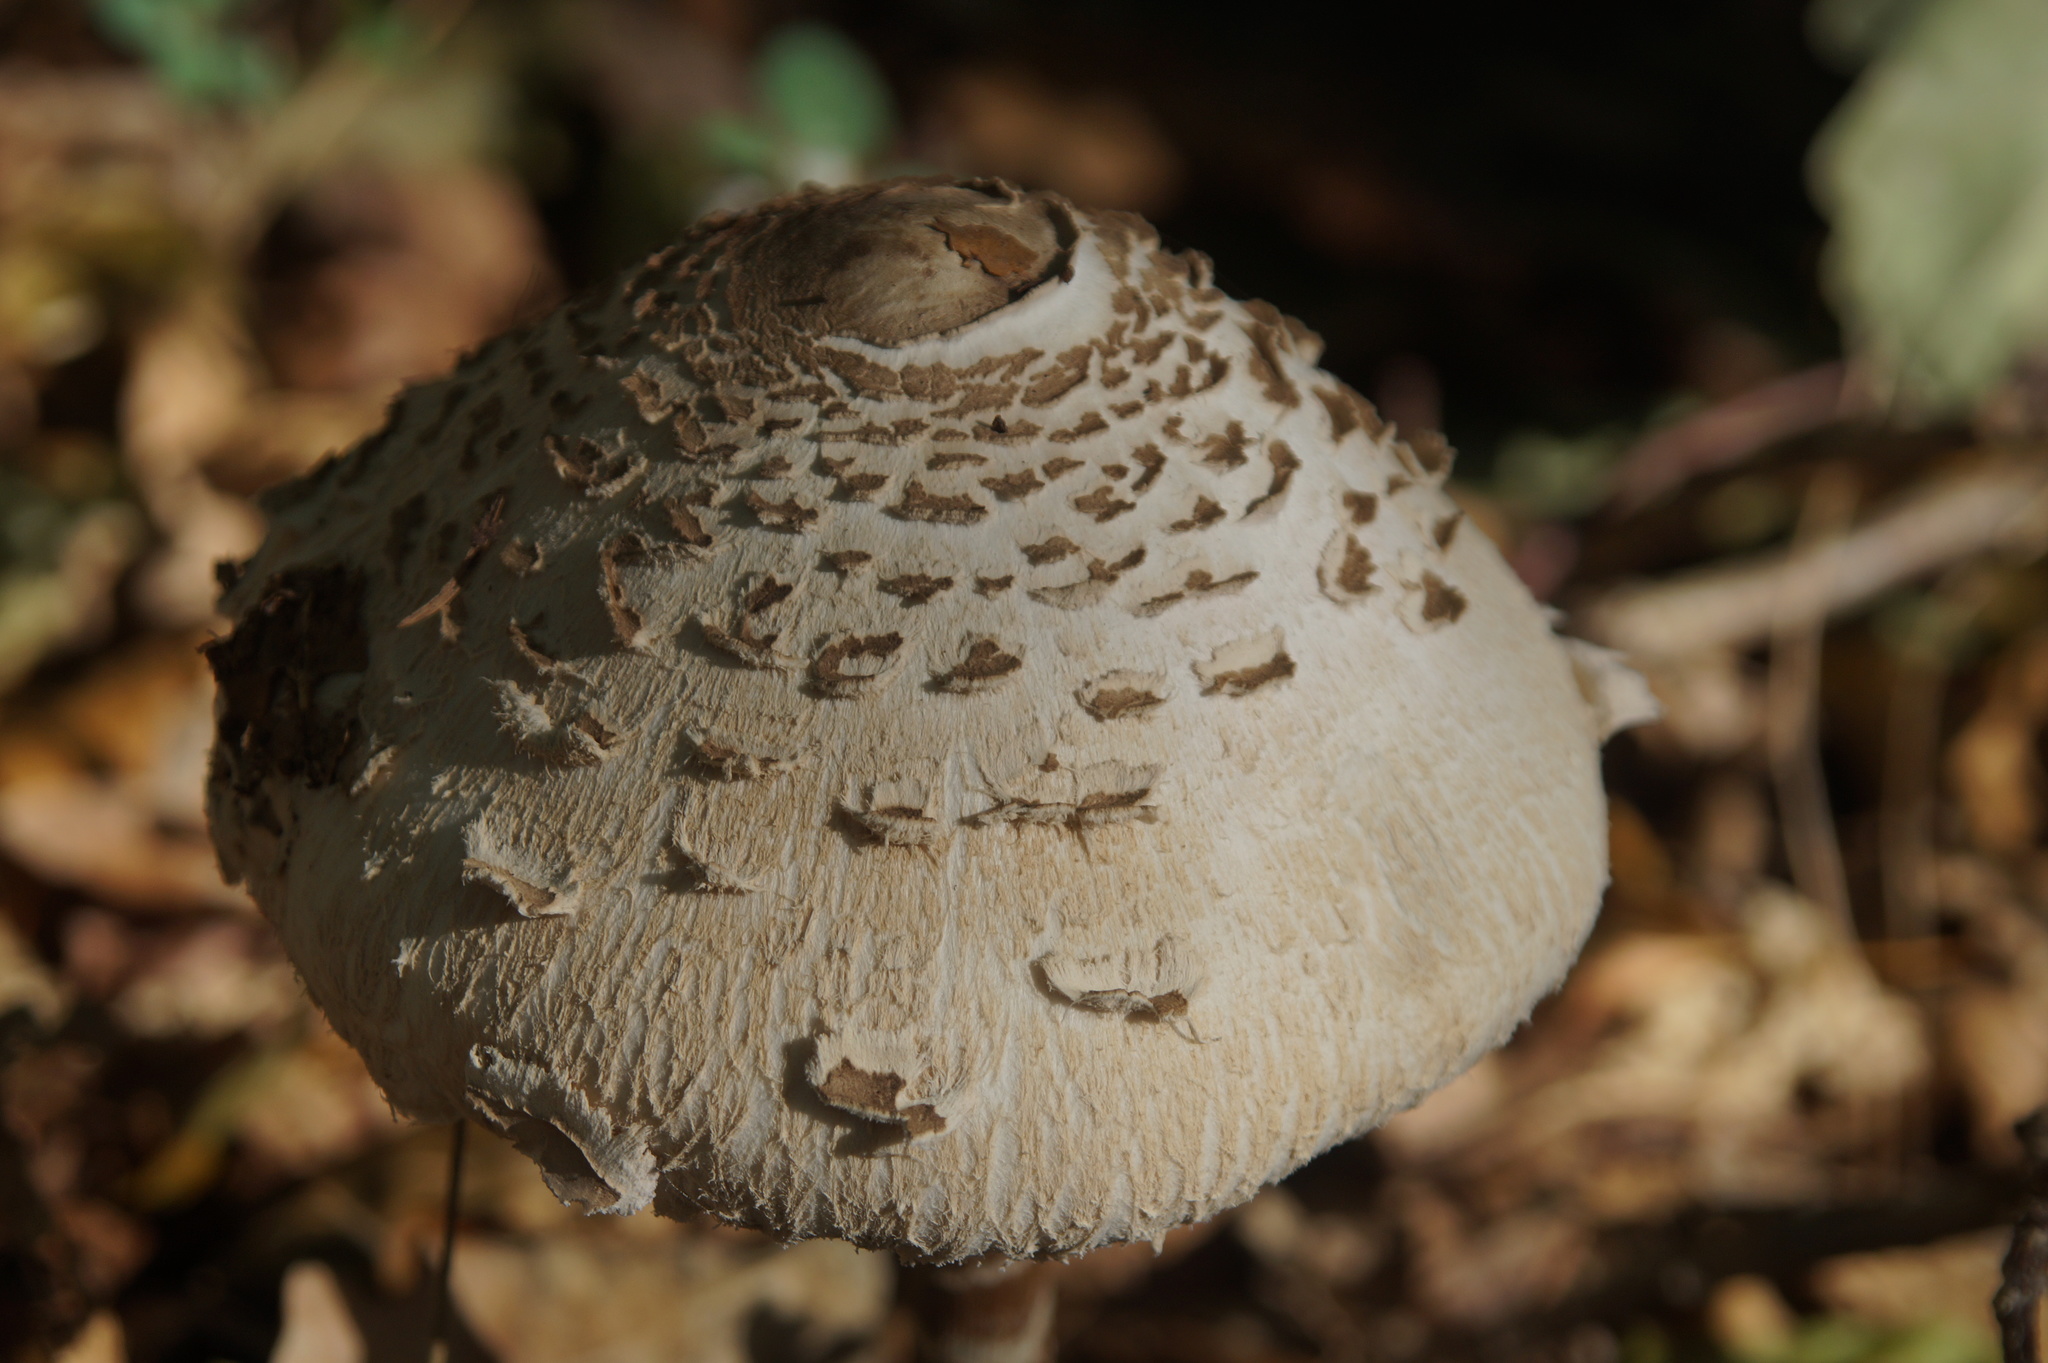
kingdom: Fungi
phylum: Basidiomycota
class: Agaricomycetes
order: Agaricales
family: Agaricaceae
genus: Macrolepiota
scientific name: Macrolepiota procera
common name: Parasol
